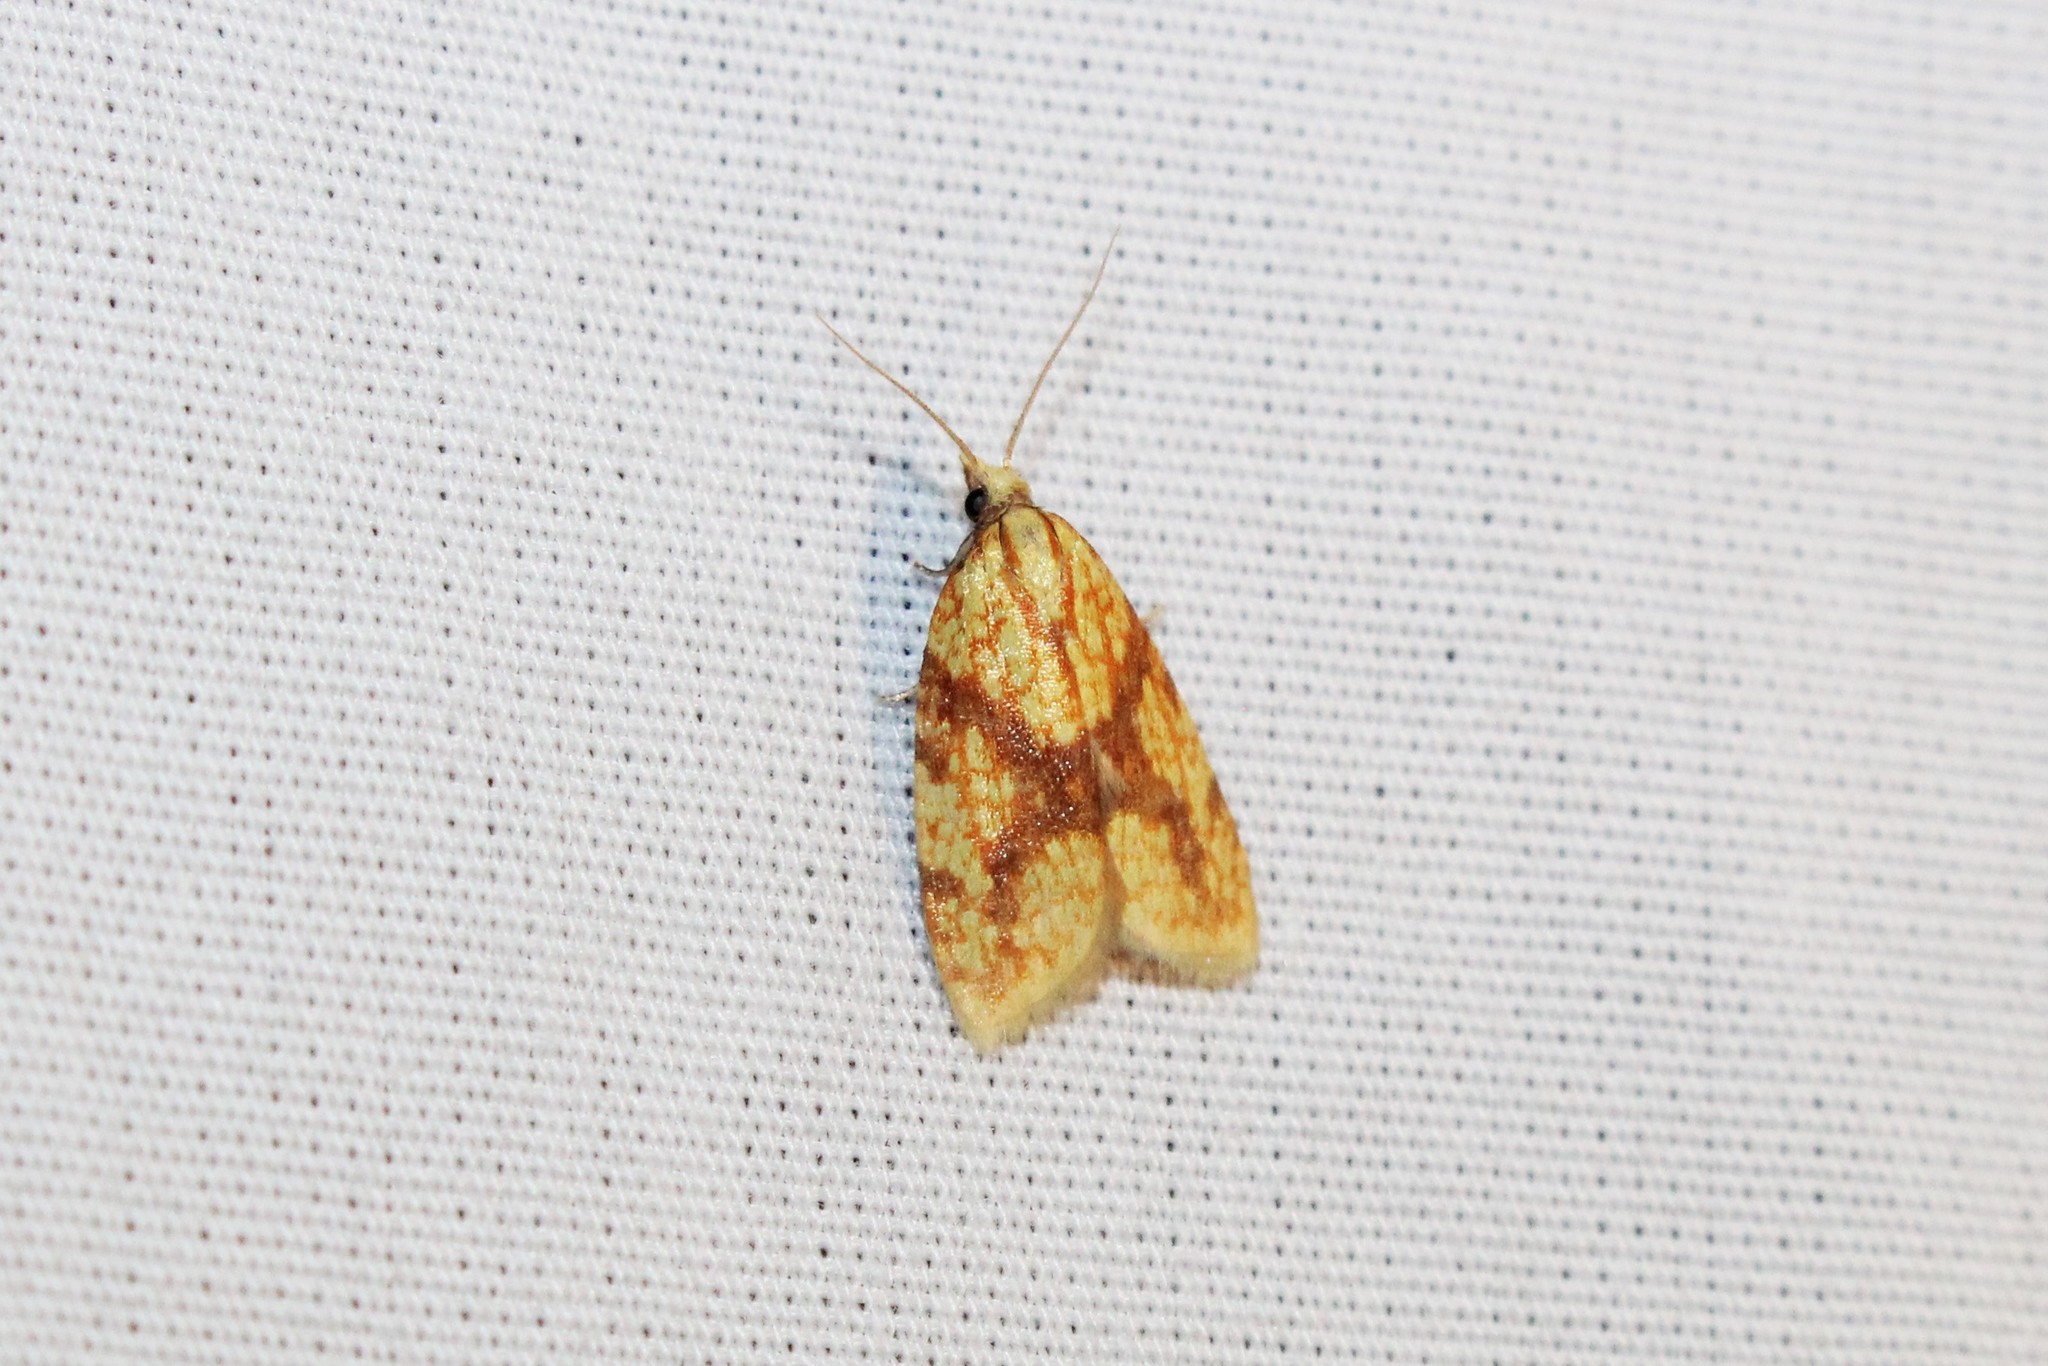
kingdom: Animalia
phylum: Arthropoda
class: Insecta
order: Lepidoptera
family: Tortricidae
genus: Sparganothis
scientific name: Sparganothis sulfureana
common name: Sparganothis fruitworm moth
